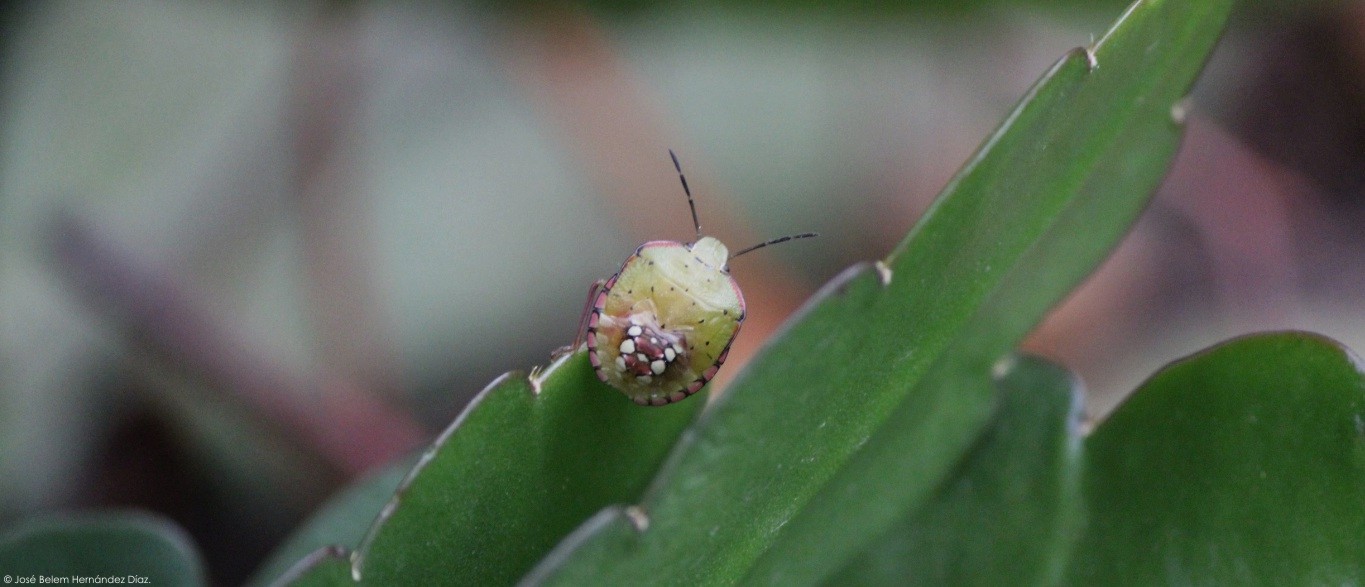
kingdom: Animalia
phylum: Arthropoda
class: Insecta
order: Hemiptera
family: Pentatomidae
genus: Nezara
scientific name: Nezara viridula
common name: Southern green stink bug
